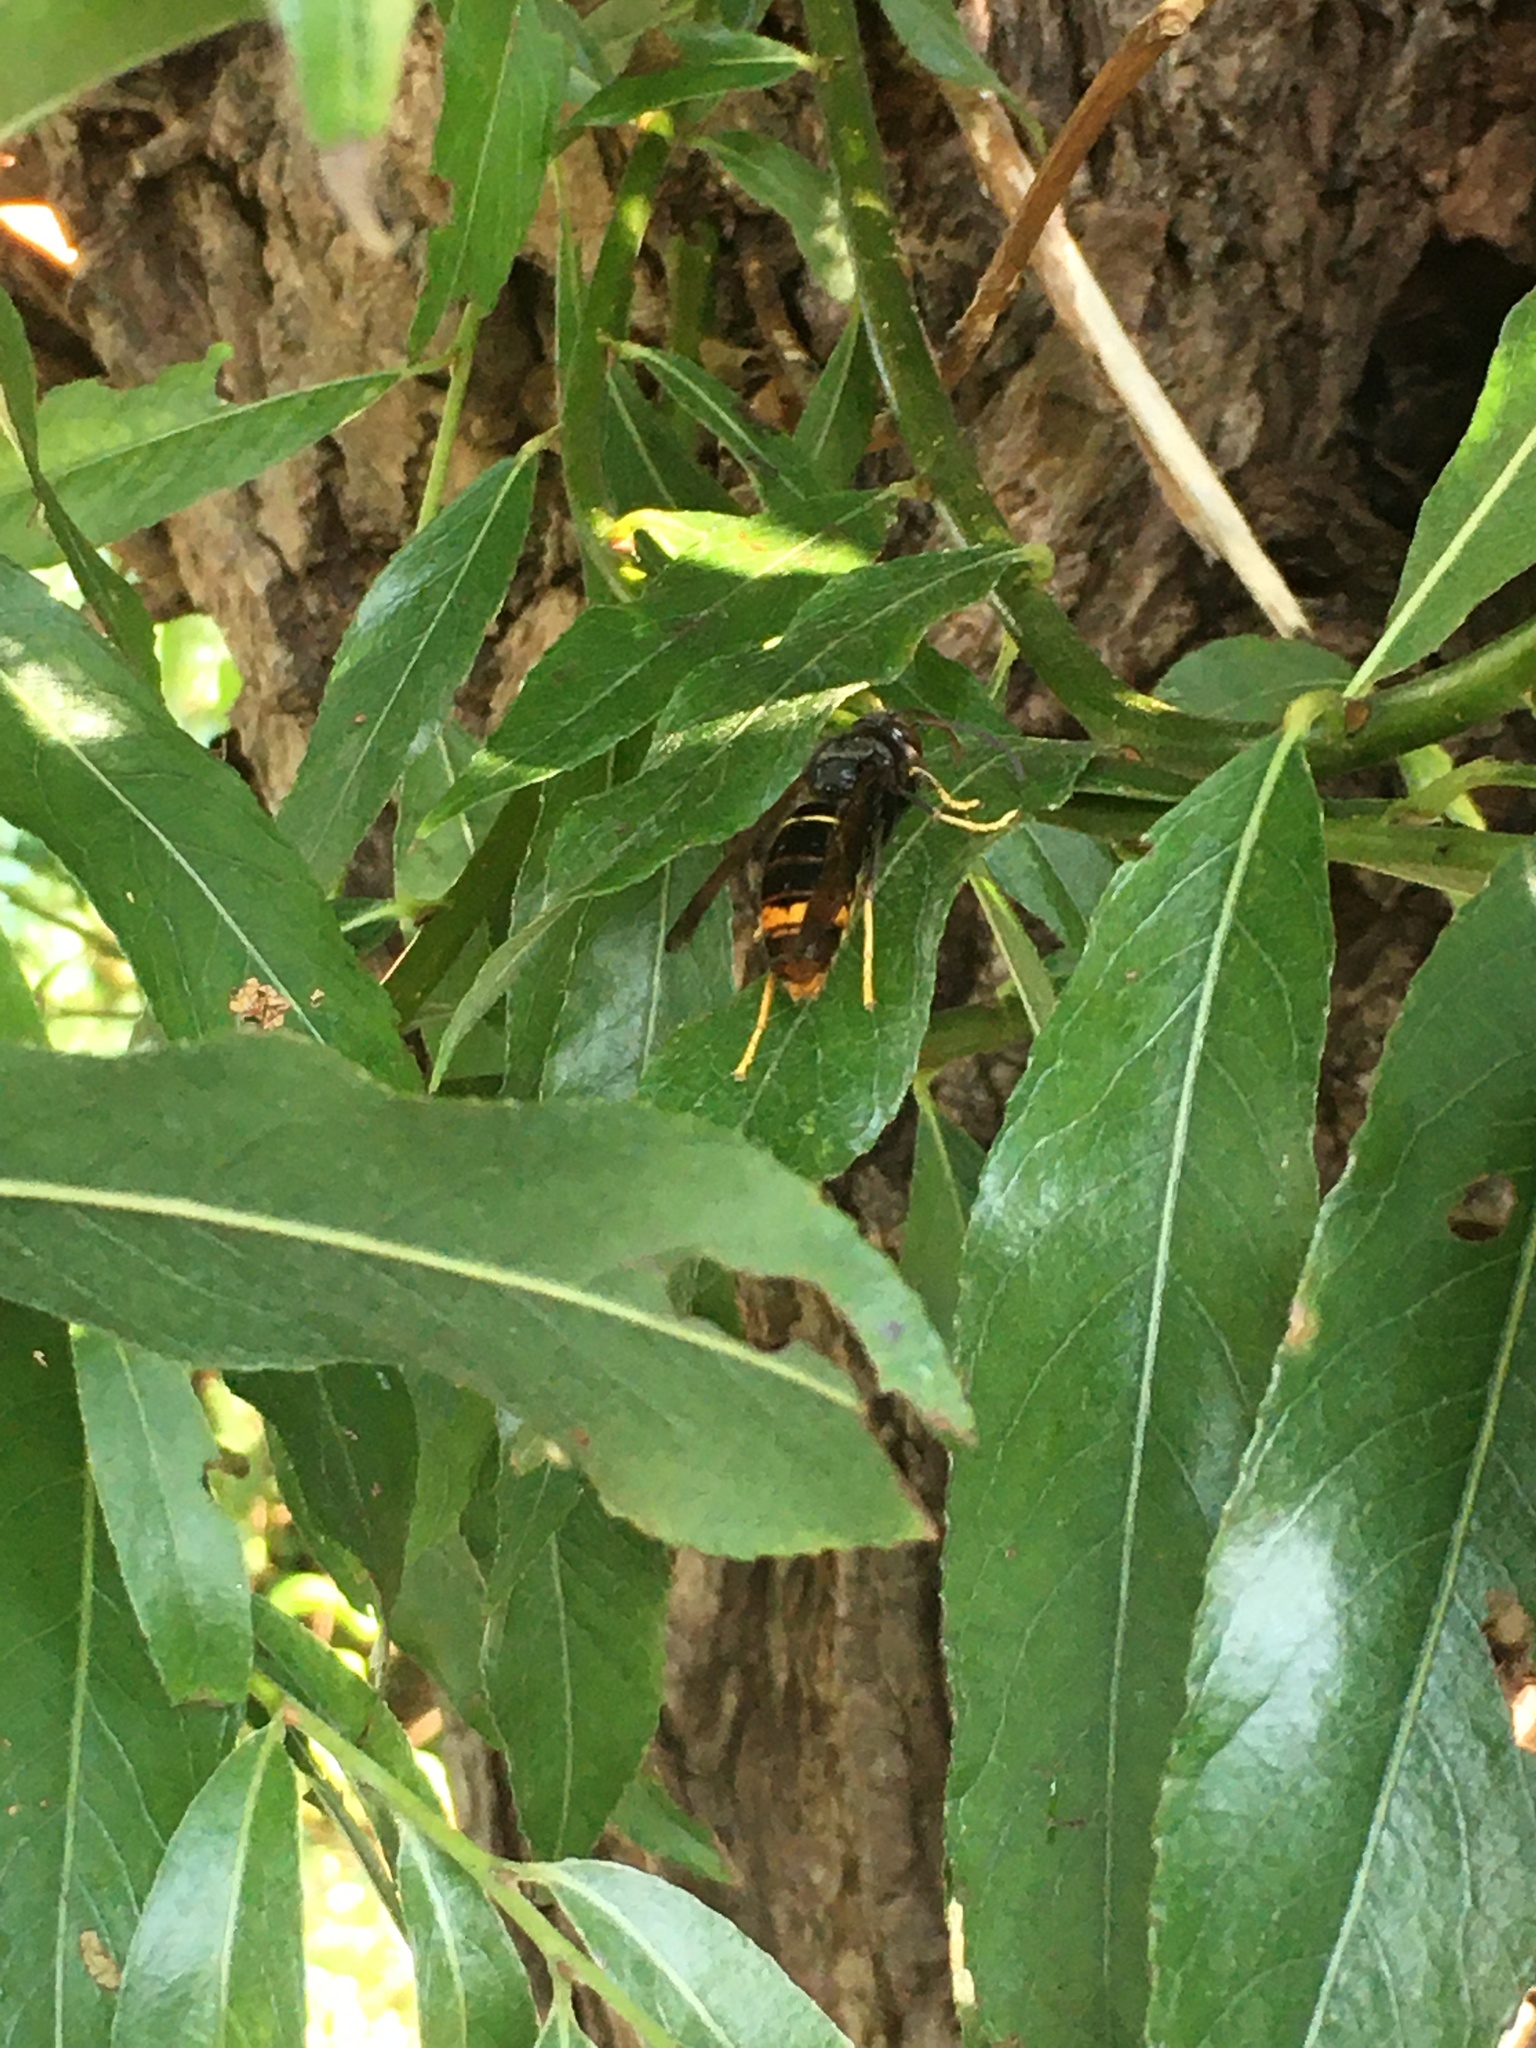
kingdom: Animalia
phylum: Arthropoda
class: Insecta
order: Hymenoptera
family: Vespidae
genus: Vespa
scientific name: Vespa velutina
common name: Asian hornet
